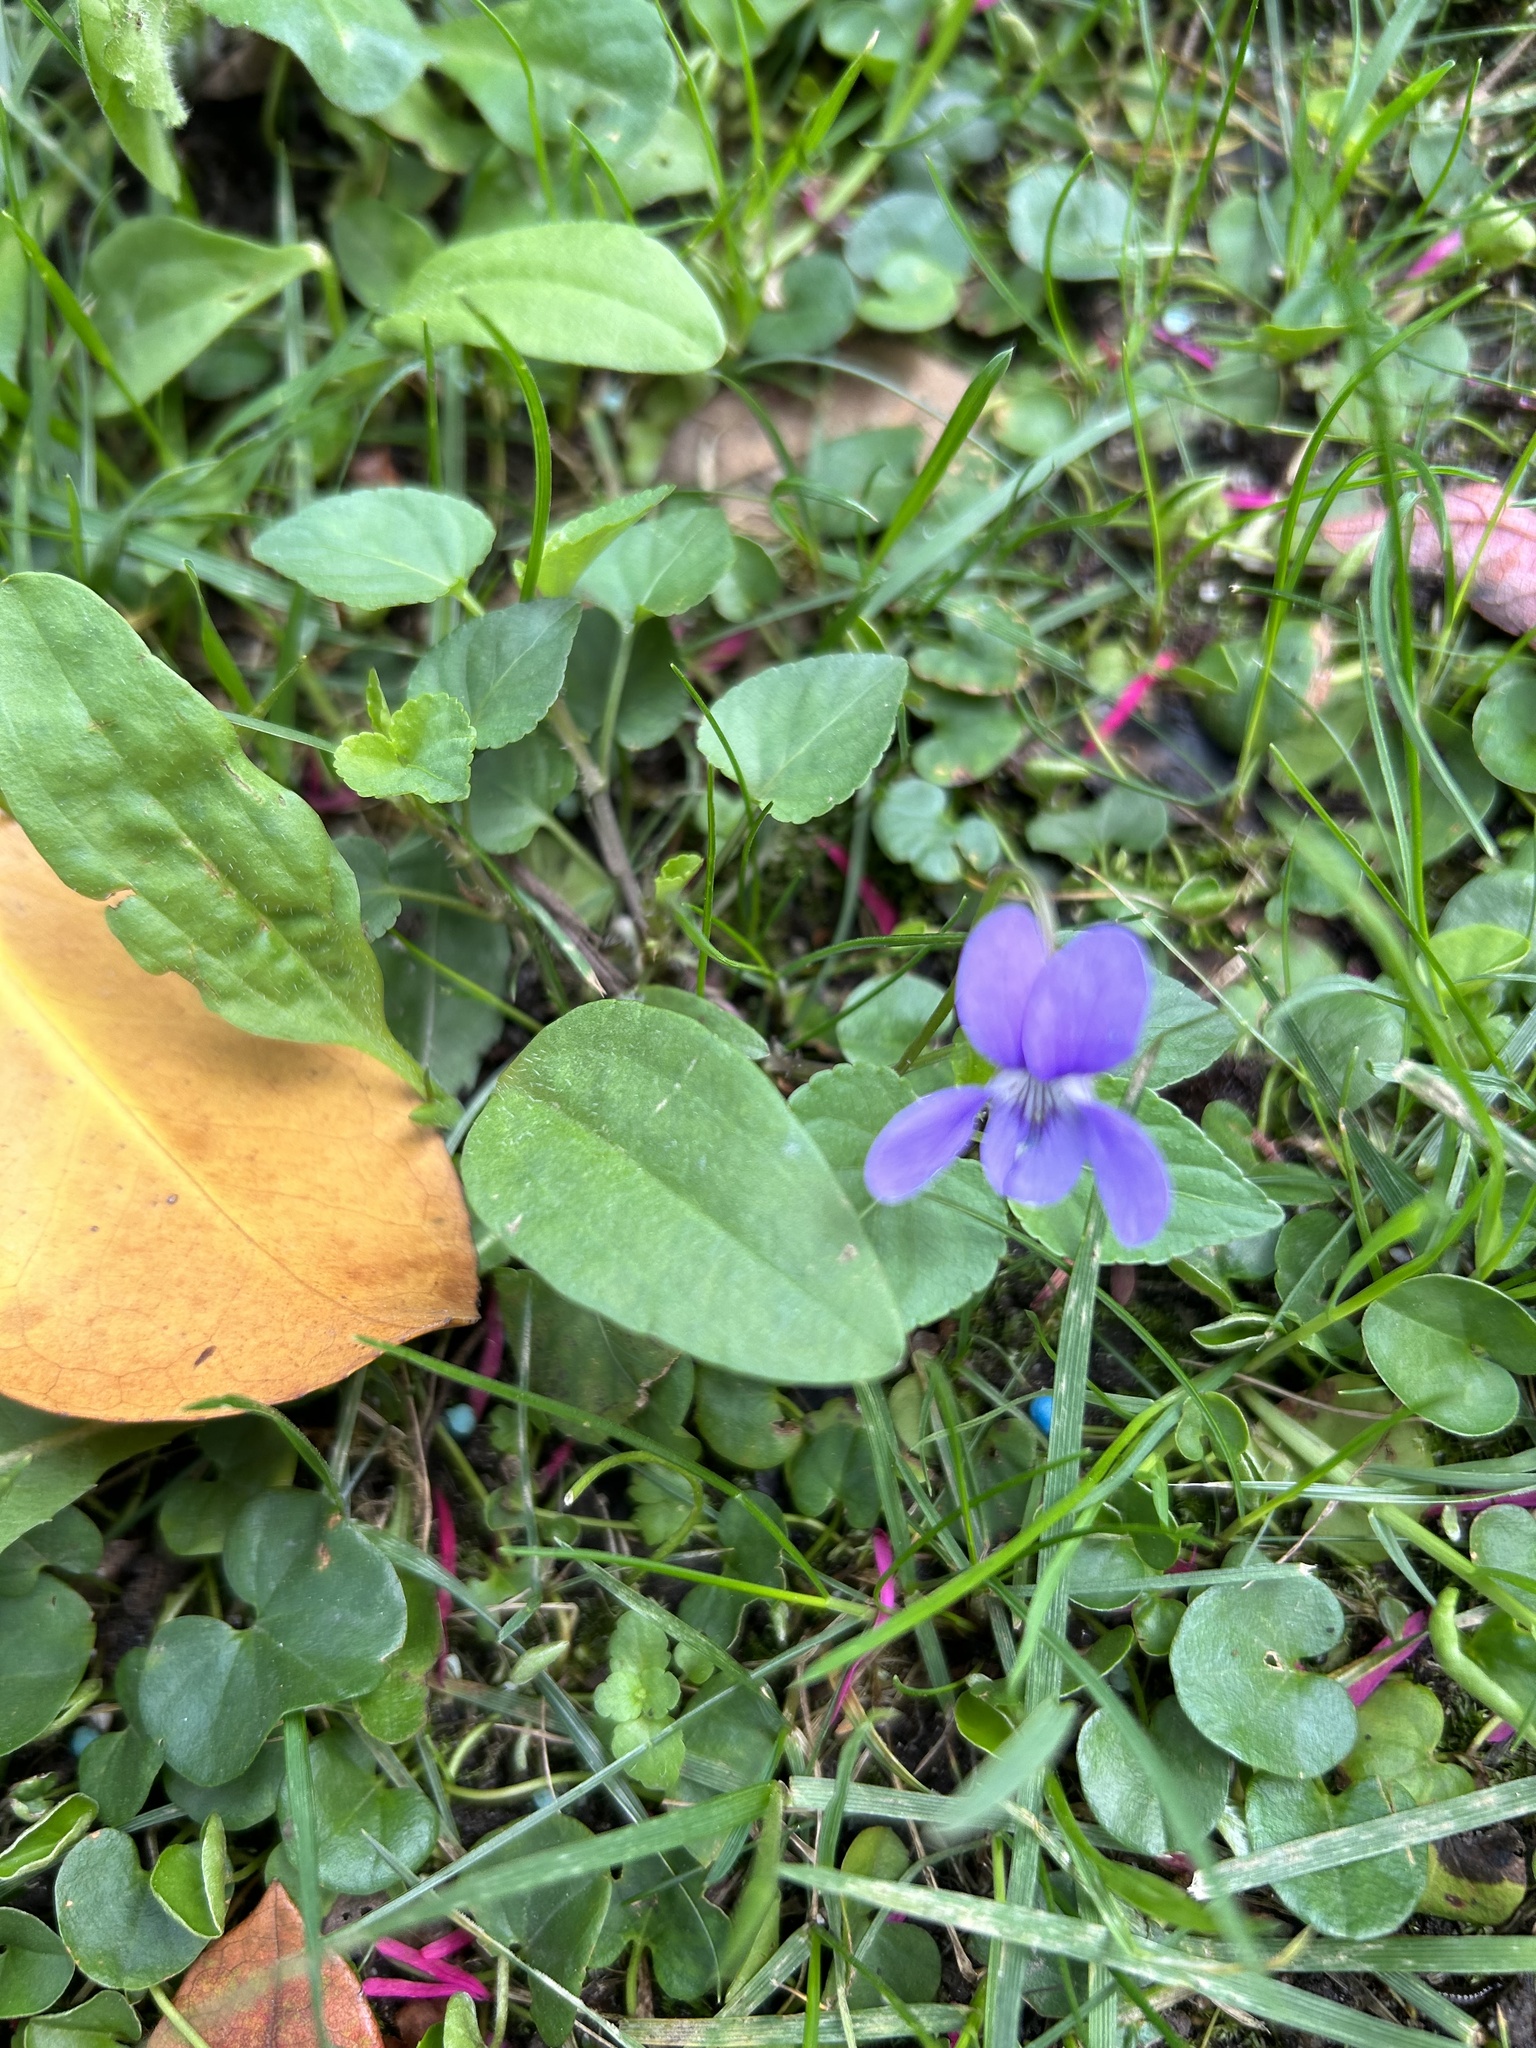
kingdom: Plantae
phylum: Tracheophyta
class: Magnoliopsida
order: Malpighiales
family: Violaceae
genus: Viola
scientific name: Viola reichenbachiana
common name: Early dog-violet
